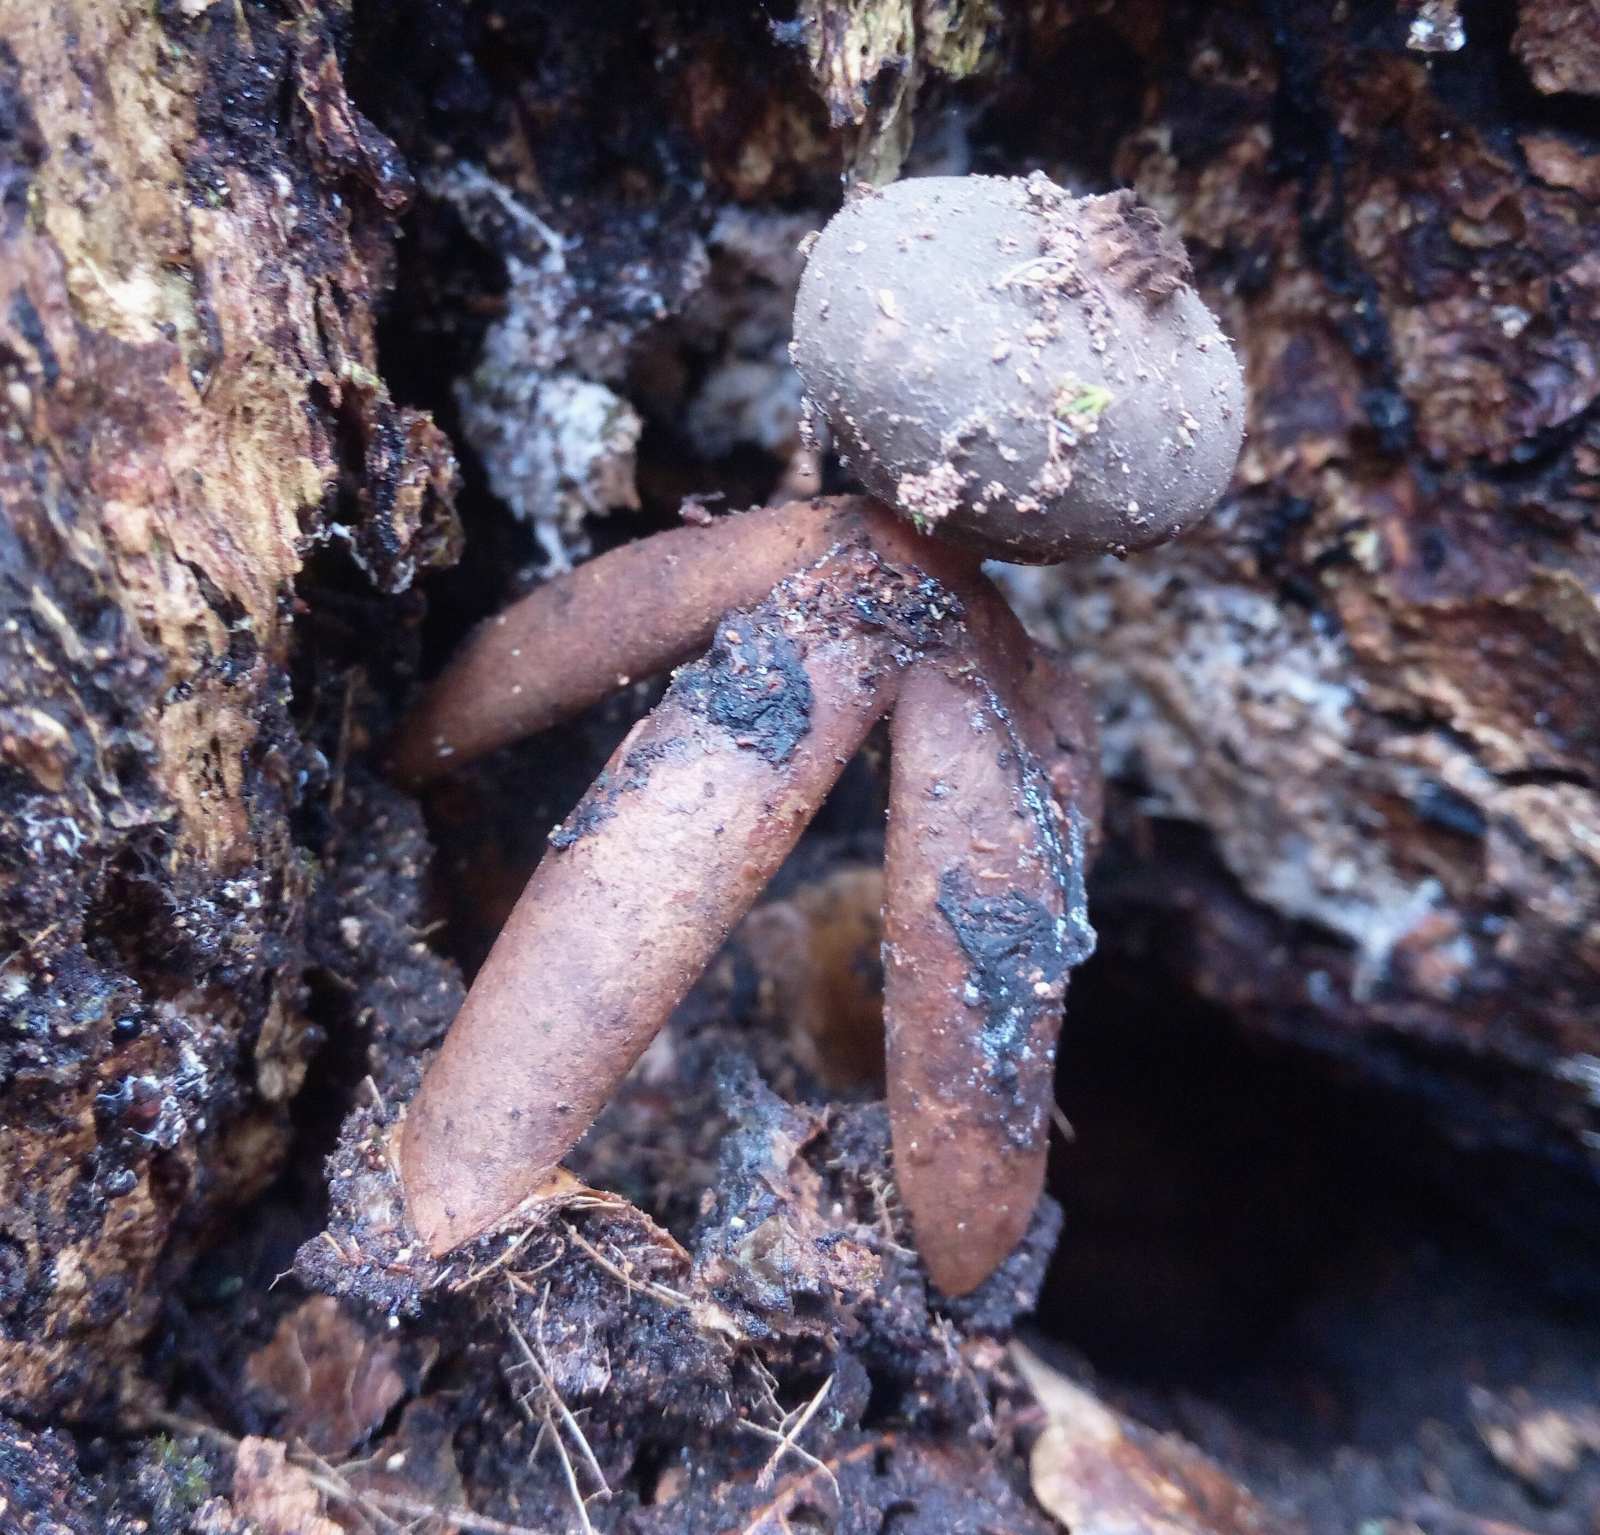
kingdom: Fungi
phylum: Basidiomycota
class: Agaricomycetes
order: Geastrales
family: Geastraceae
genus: Geastrum
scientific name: Geastrum fornicatum
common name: Arched earthstar
